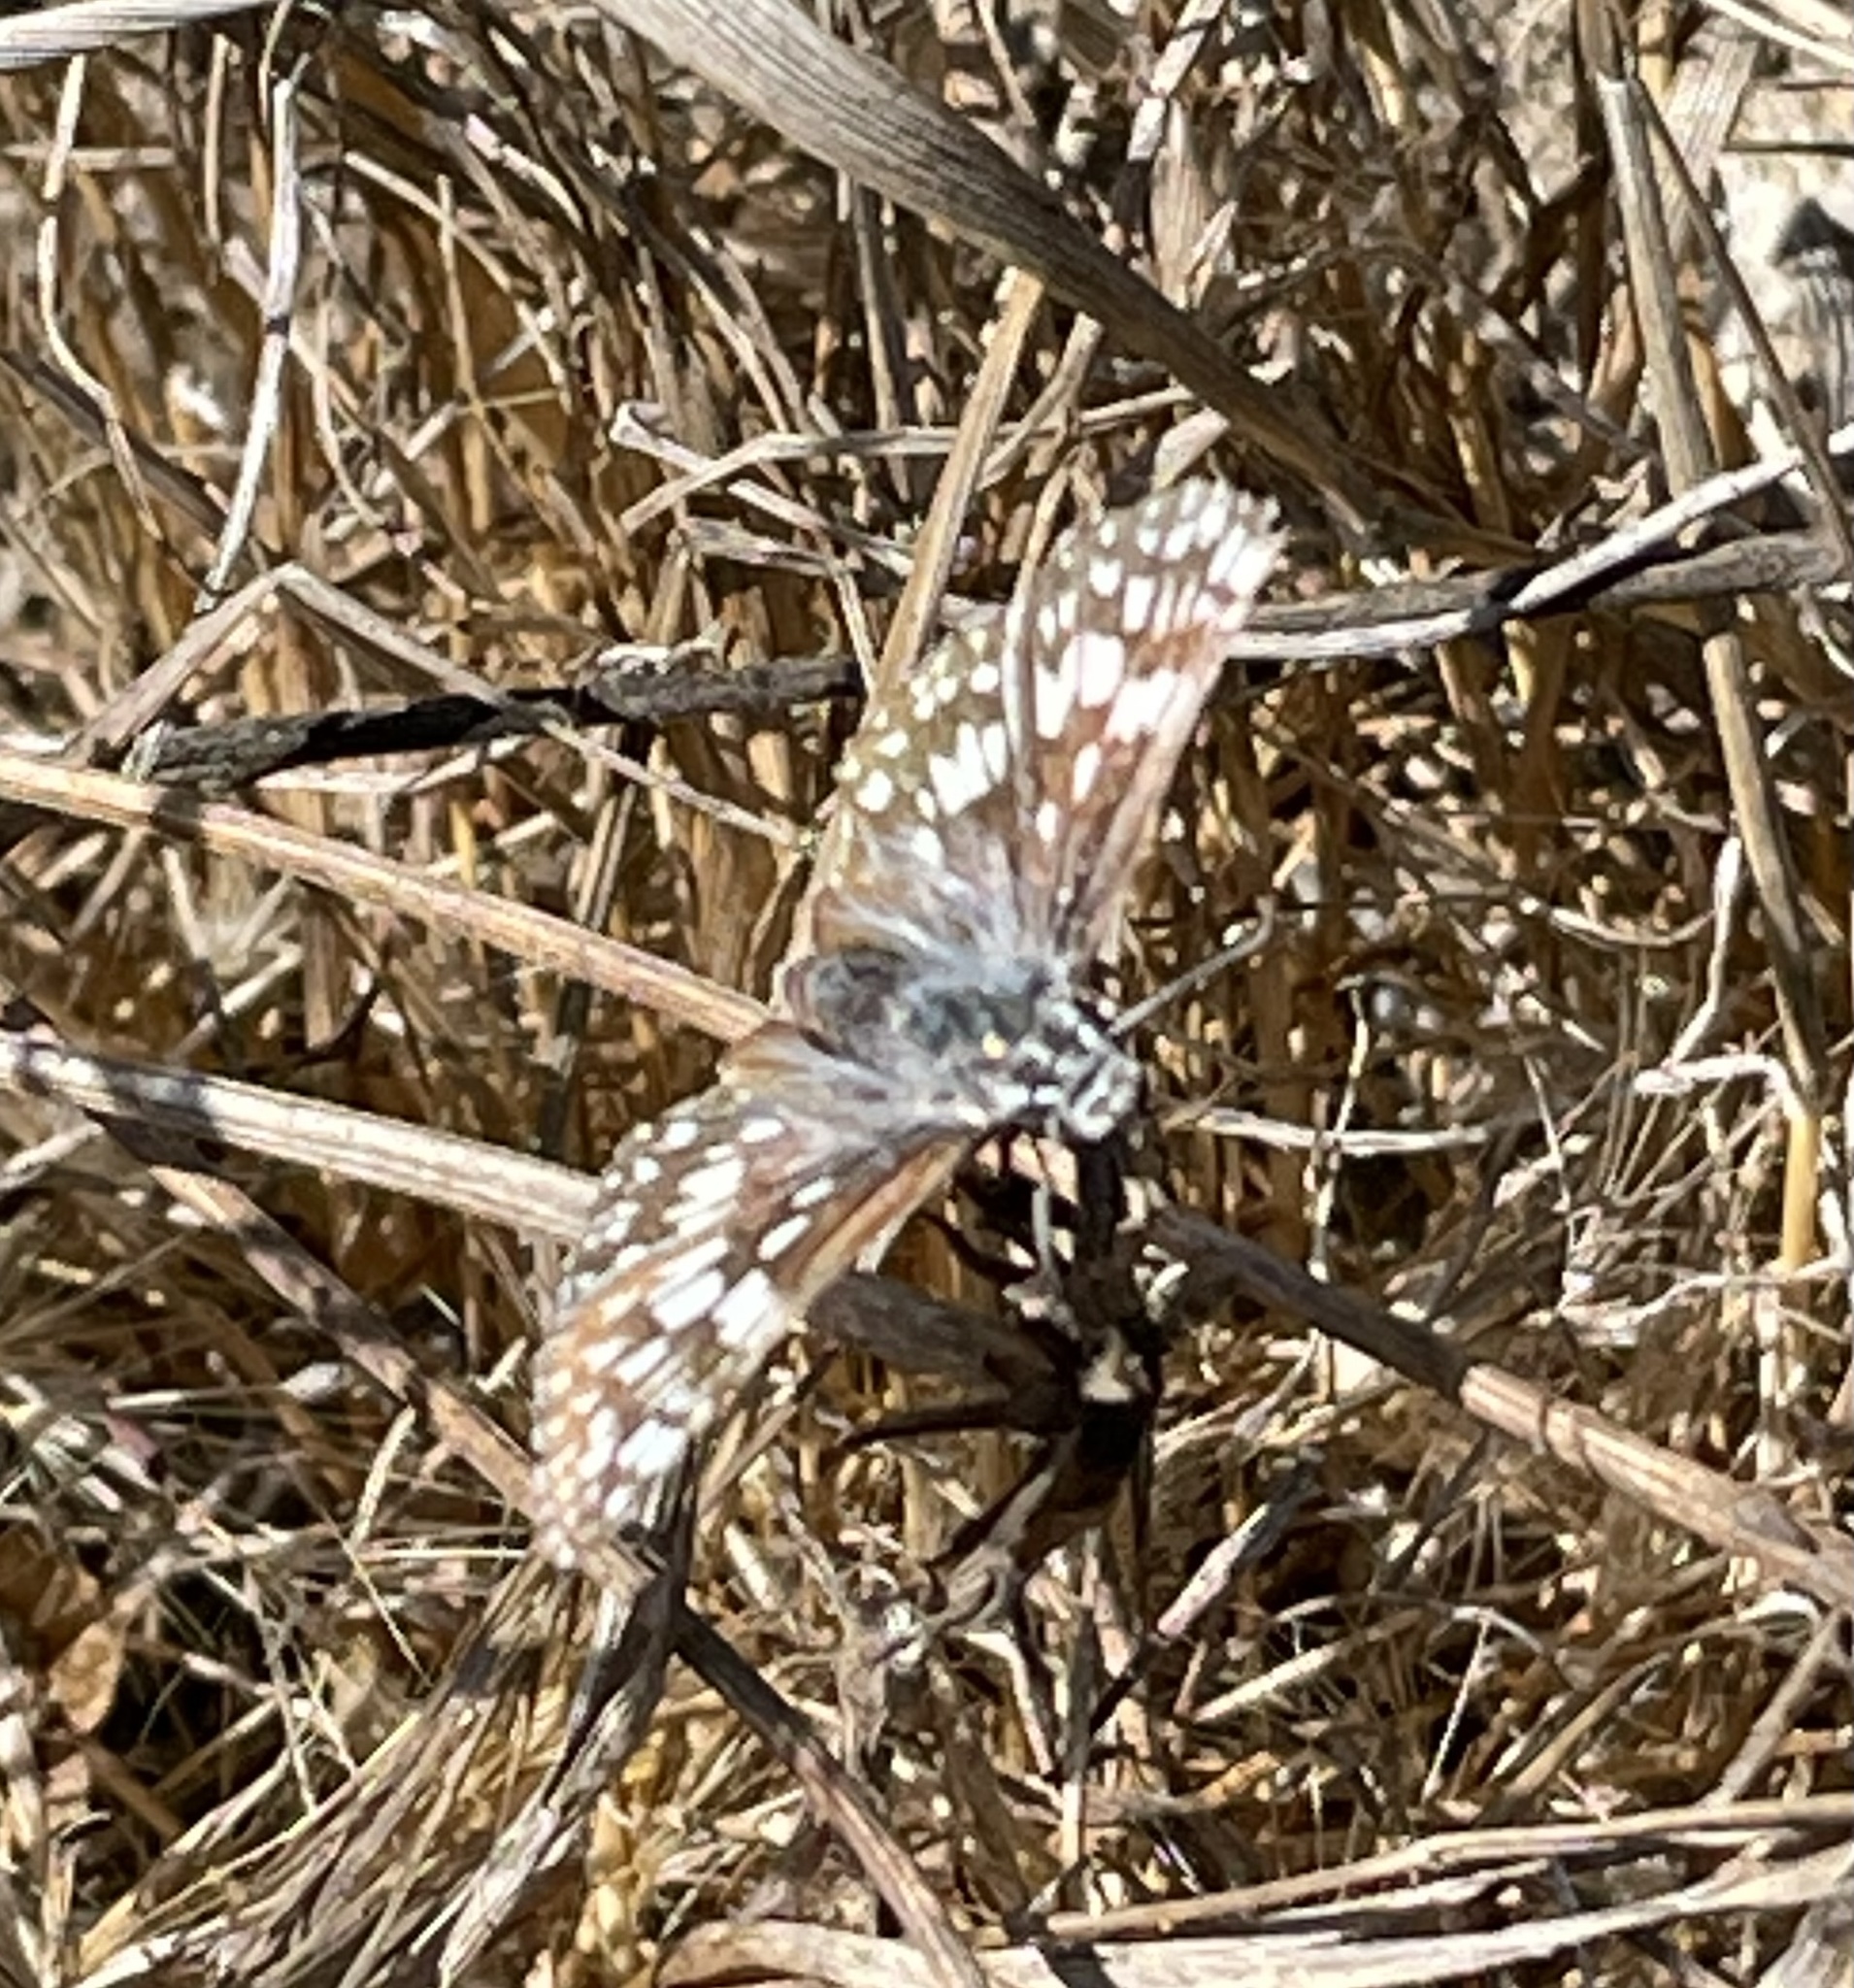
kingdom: Animalia
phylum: Arthropoda
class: Insecta
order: Lepidoptera
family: Hesperiidae
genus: Burnsius
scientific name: Burnsius communis
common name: Common checkered-skipper
